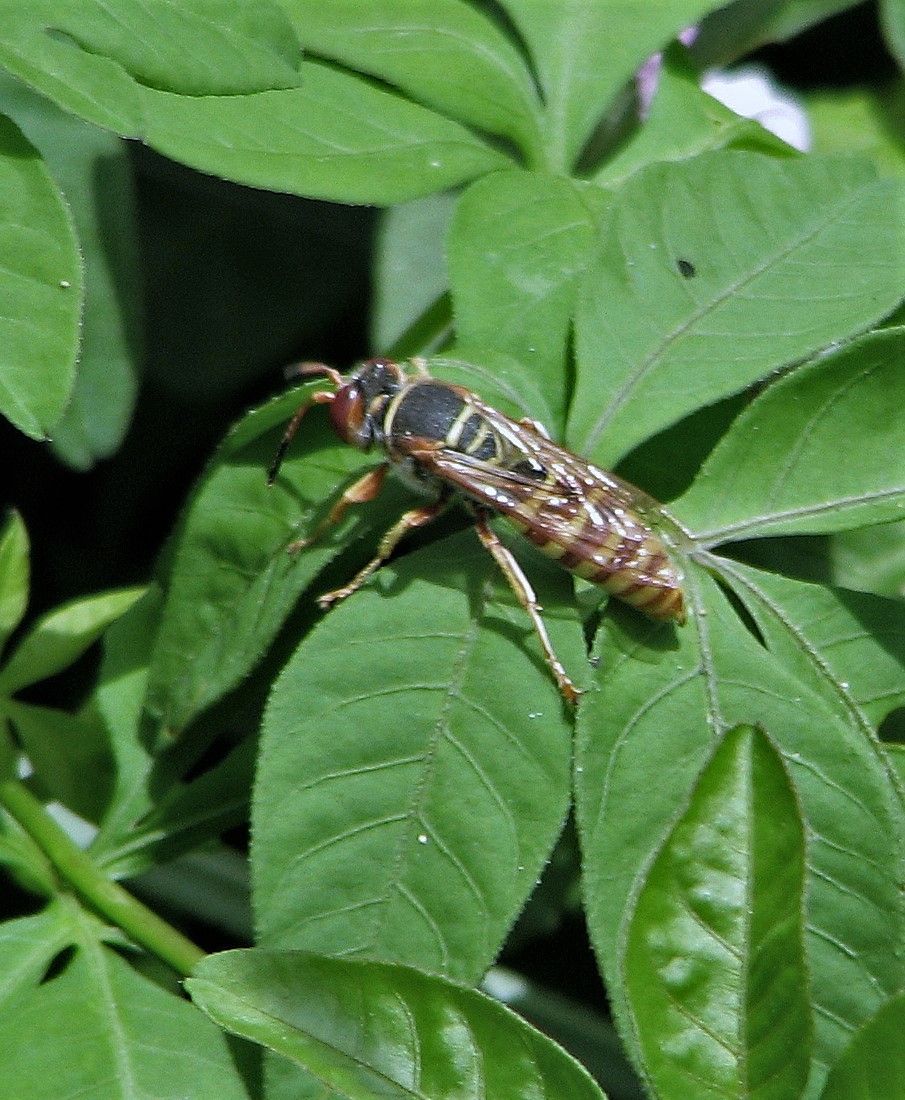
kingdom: Animalia
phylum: Arthropoda
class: Insecta
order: Hymenoptera
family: Crabronidae
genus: Rubrica
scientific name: Rubrica nasuta
